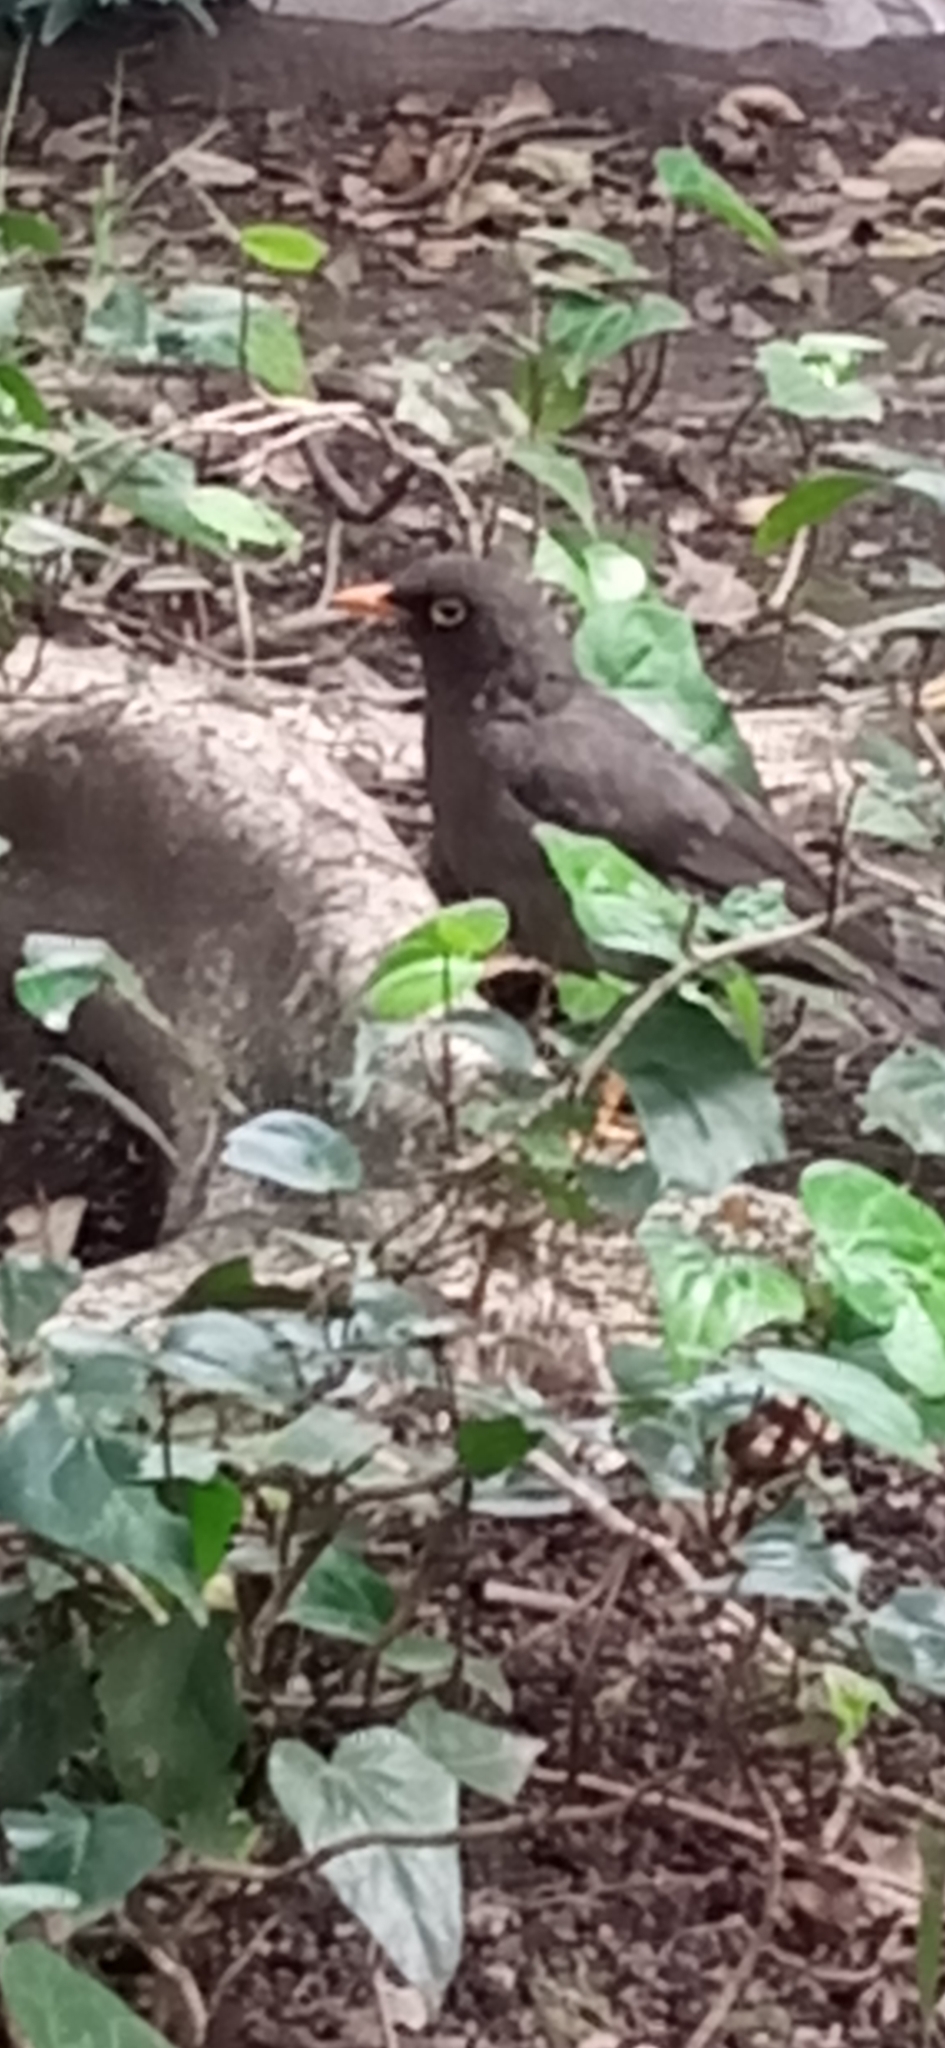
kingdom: Animalia
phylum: Chordata
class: Aves
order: Passeriformes
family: Turdidae
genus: Turdus
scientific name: Turdus fuscater
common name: Great thrush
